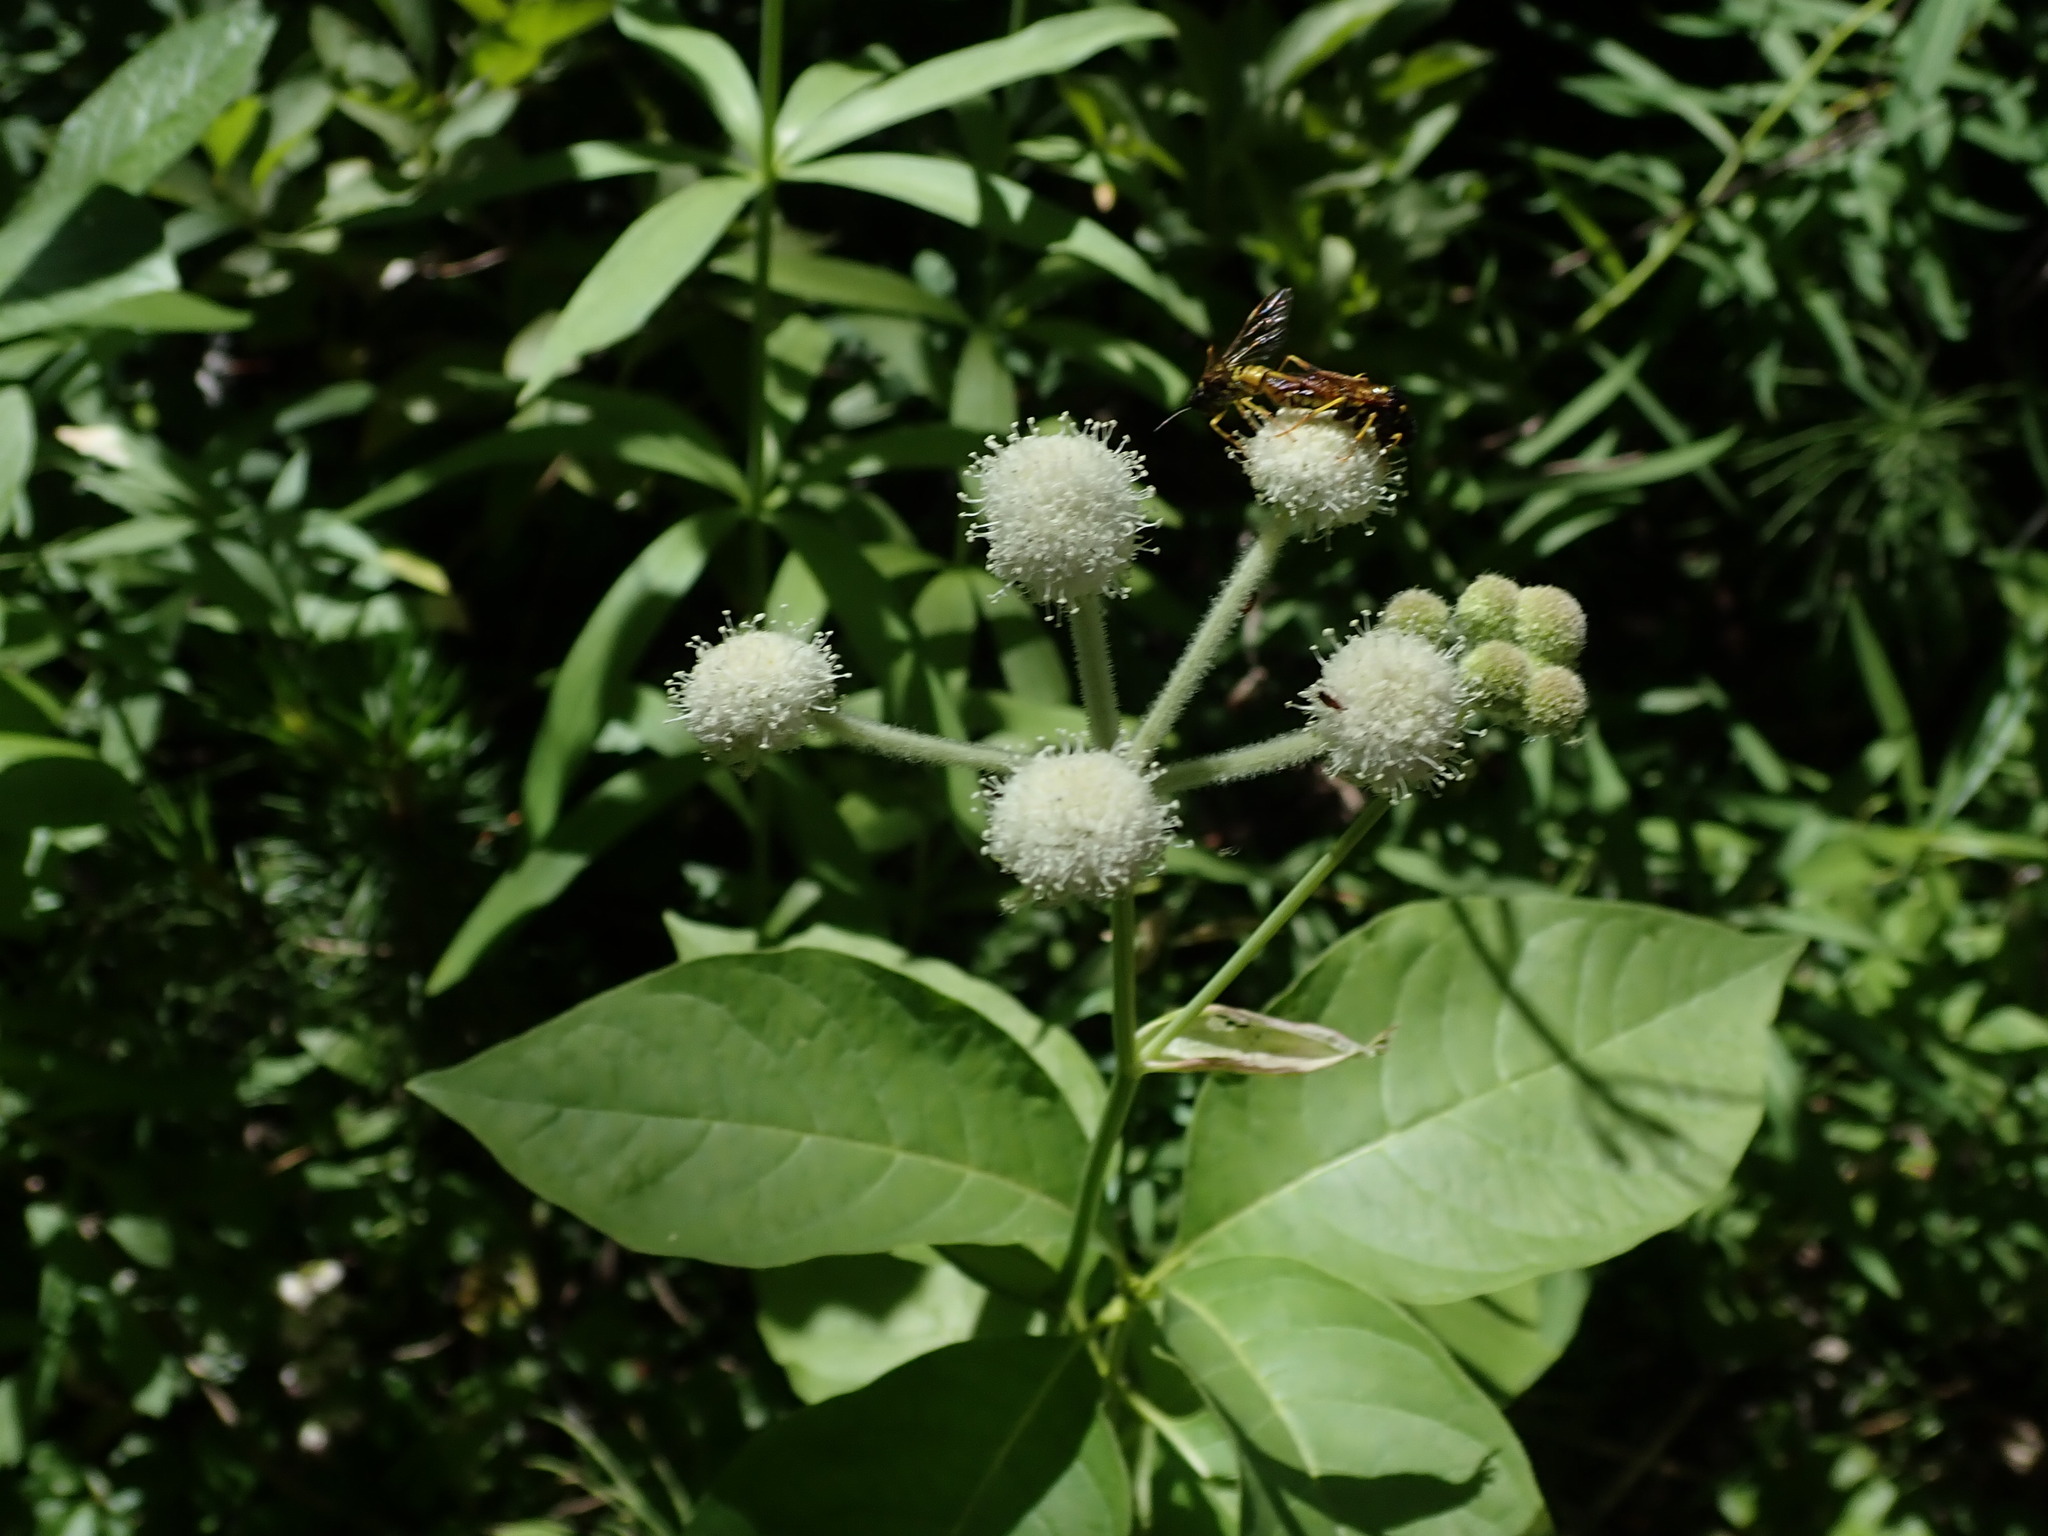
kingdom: Plantae
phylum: Tracheophyta
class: Magnoliopsida
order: Apiales
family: Apiaceae
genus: Angelica
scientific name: Angelica capitellata
